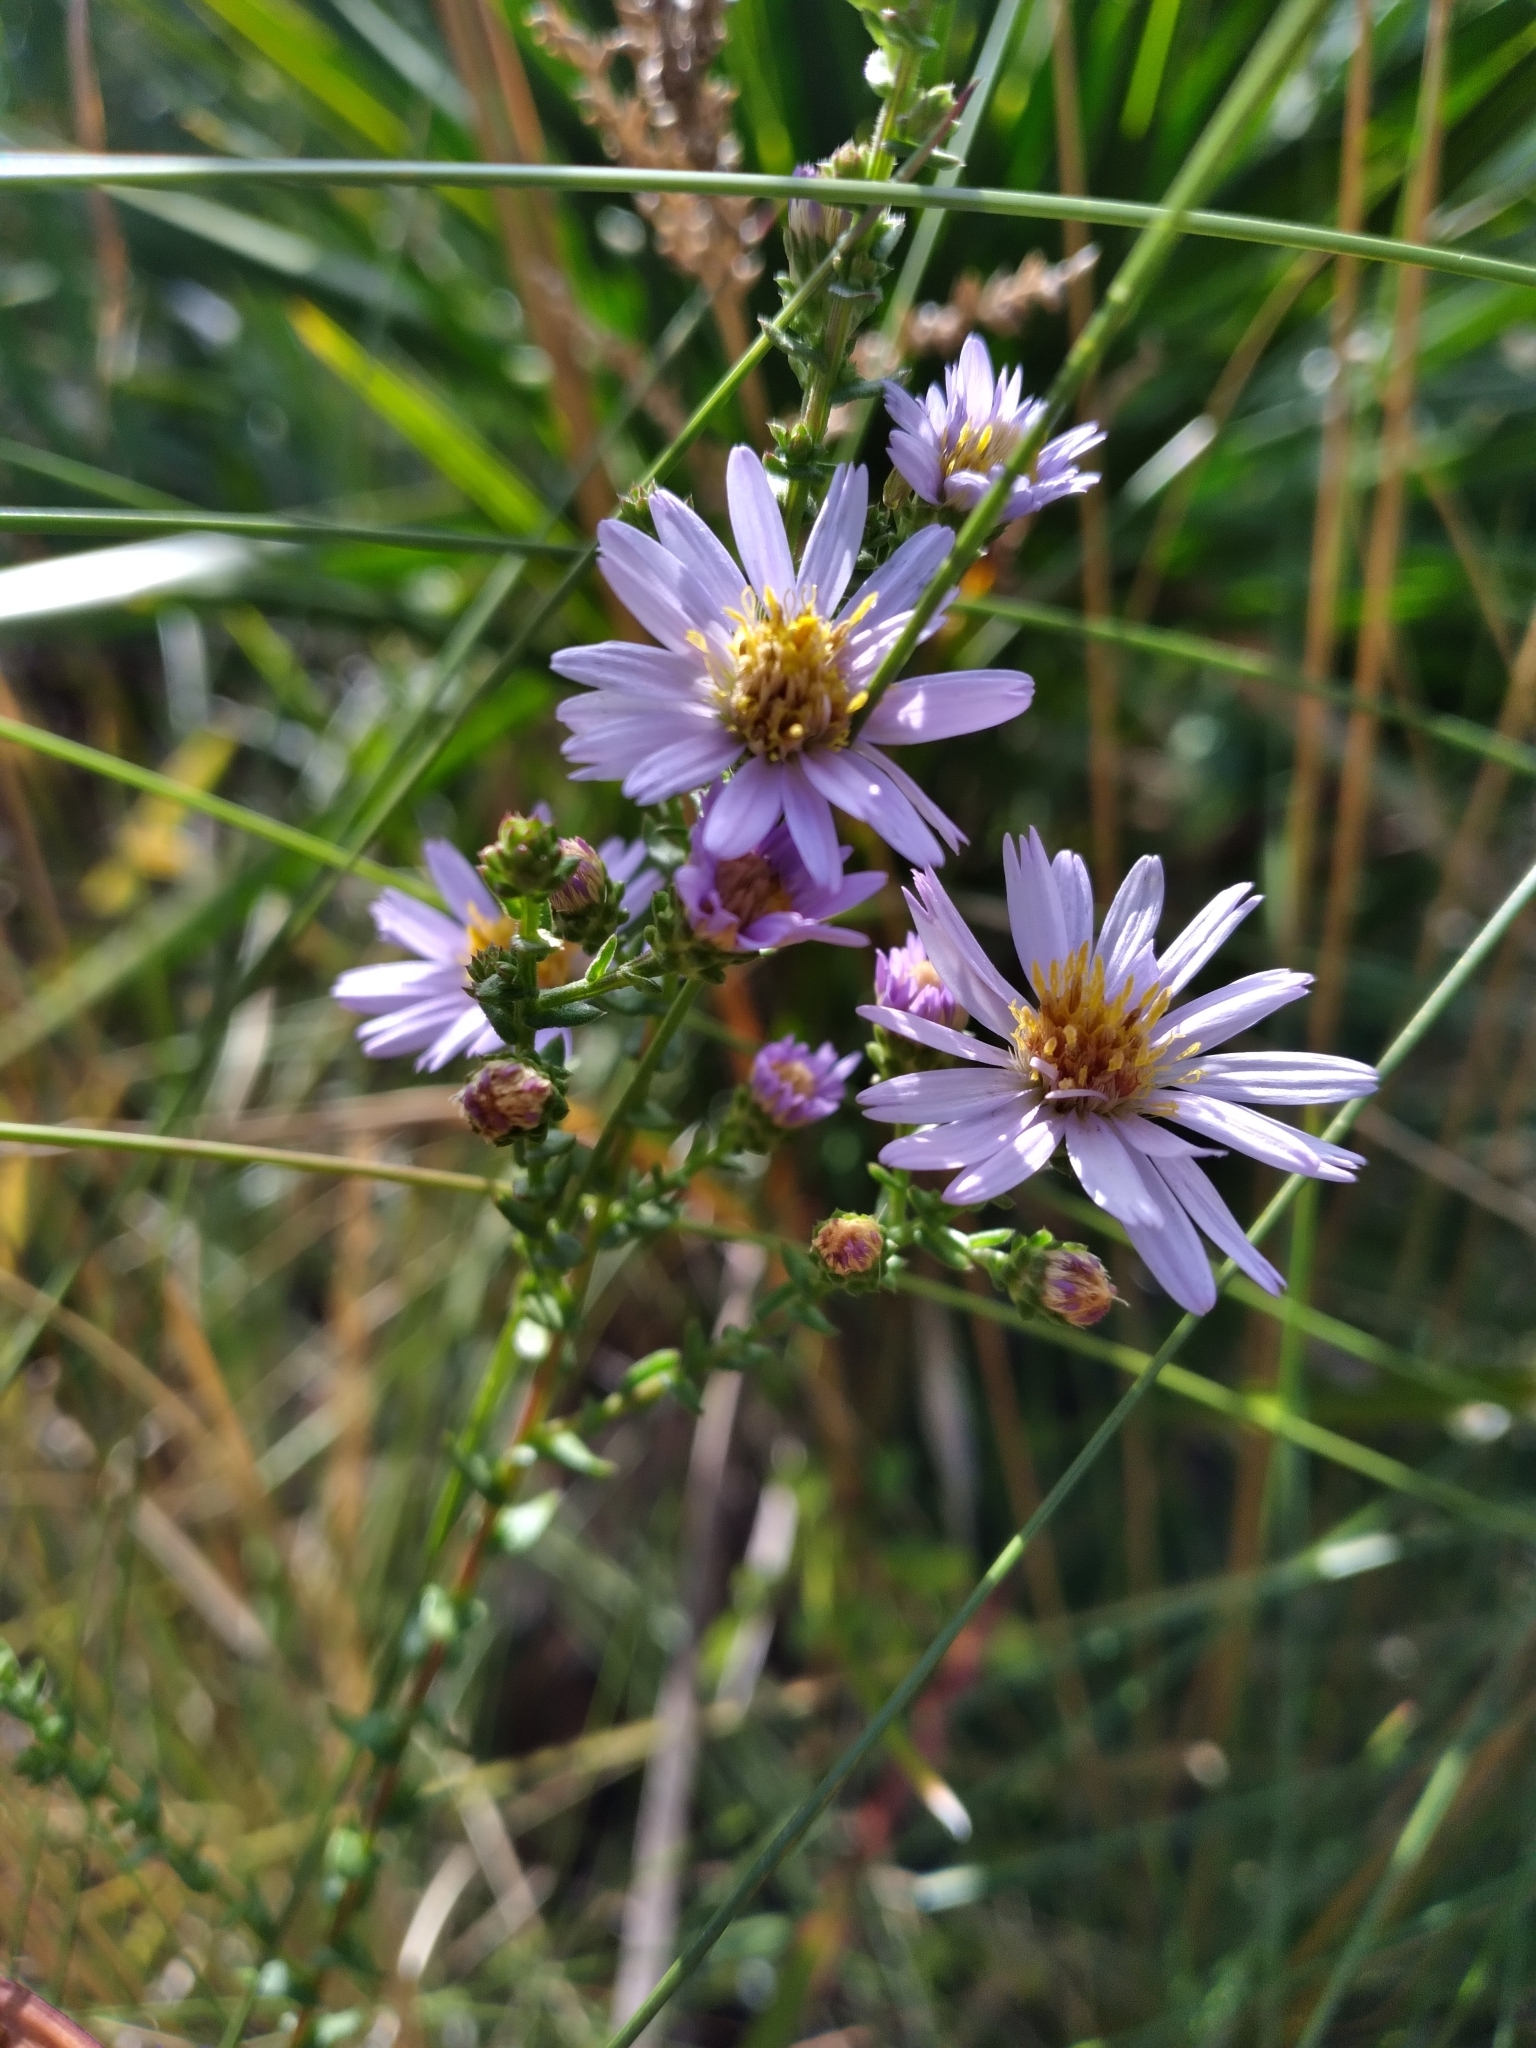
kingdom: Plantae
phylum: Tracheophyta
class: Magnoliopsida
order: Asterales
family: Asteraceae
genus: Symphyotrichum
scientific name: Symphyotrichum walteri
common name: Walter's aster
